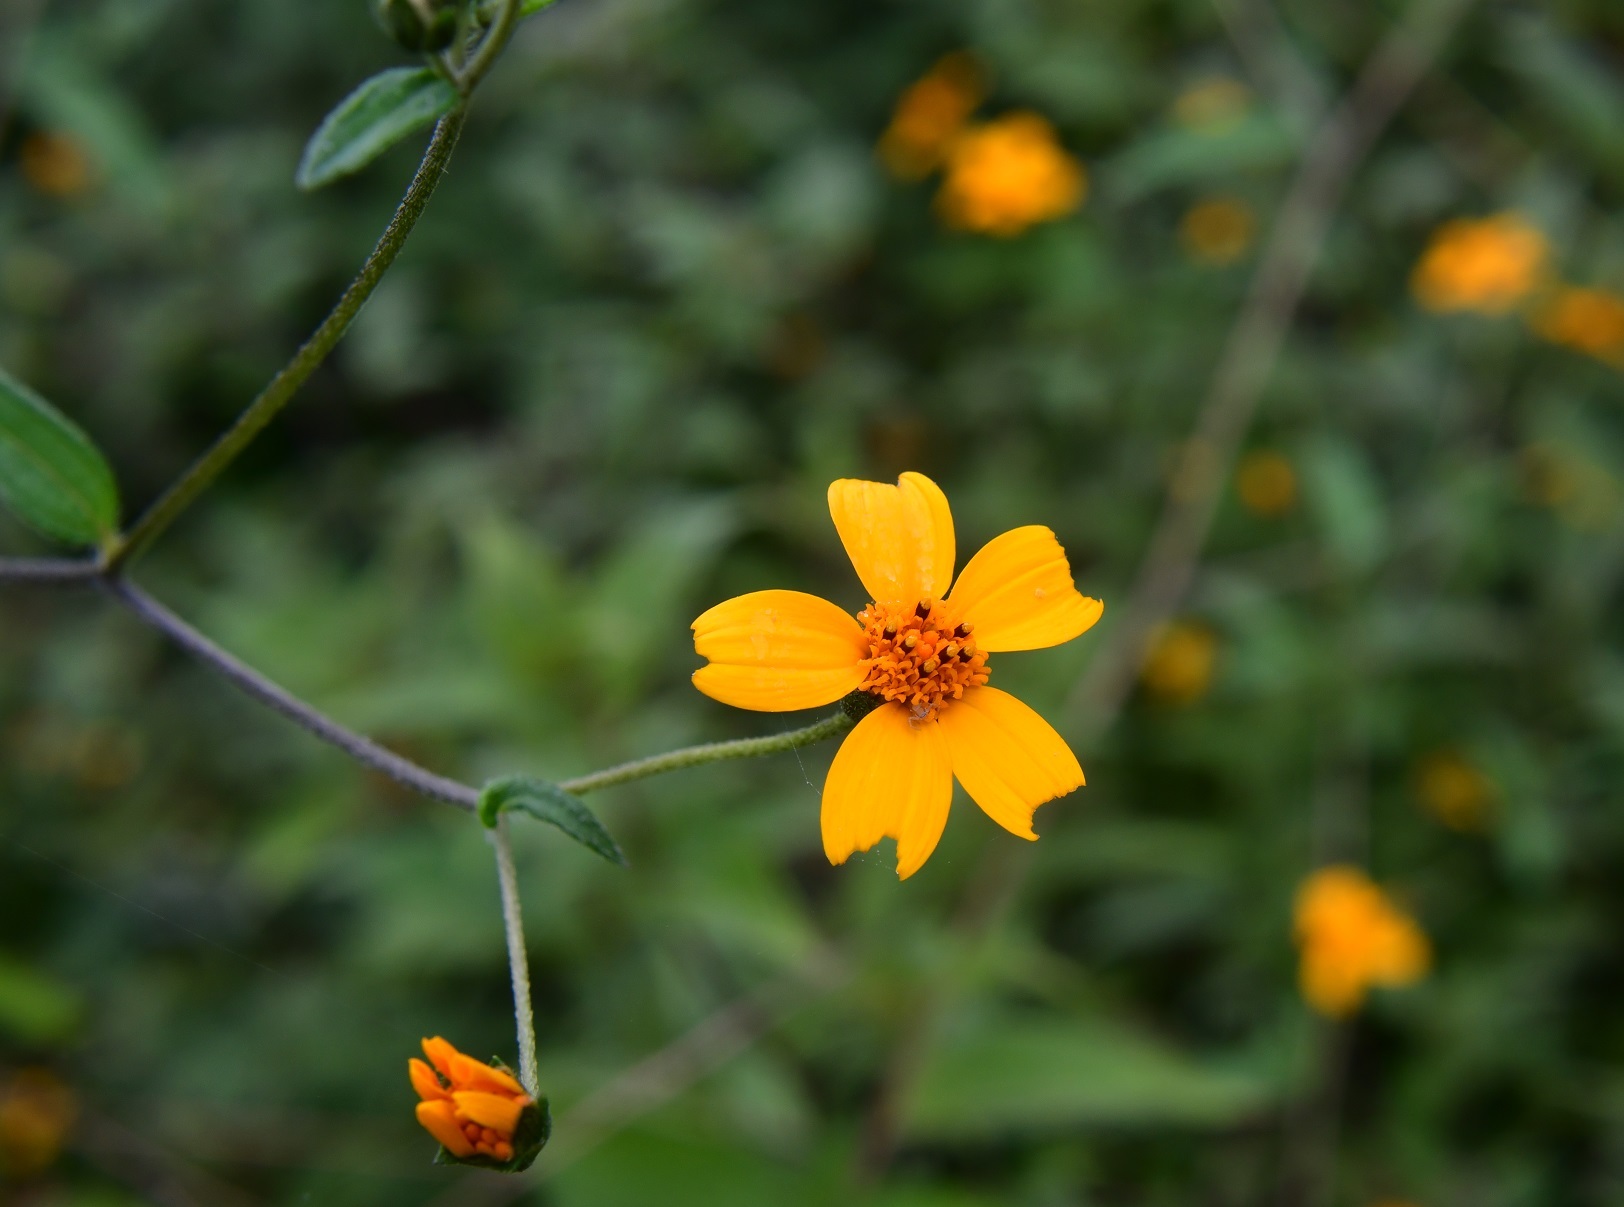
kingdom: Plantae
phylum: Tracheophyta
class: Magnoliopsida
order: Asterales
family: Asteraceae
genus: Aldama
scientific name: Aldama dentata
